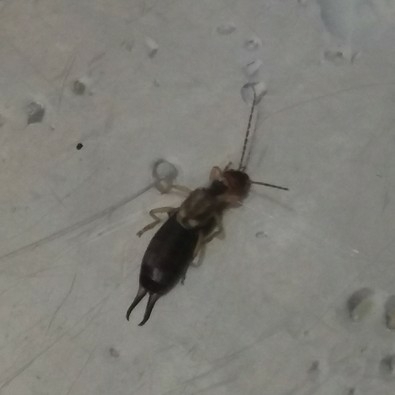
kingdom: Animalia
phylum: Arthropoda
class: Insecta
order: Dermaptera
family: Forficulidae
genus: Forficula
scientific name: Forficula
